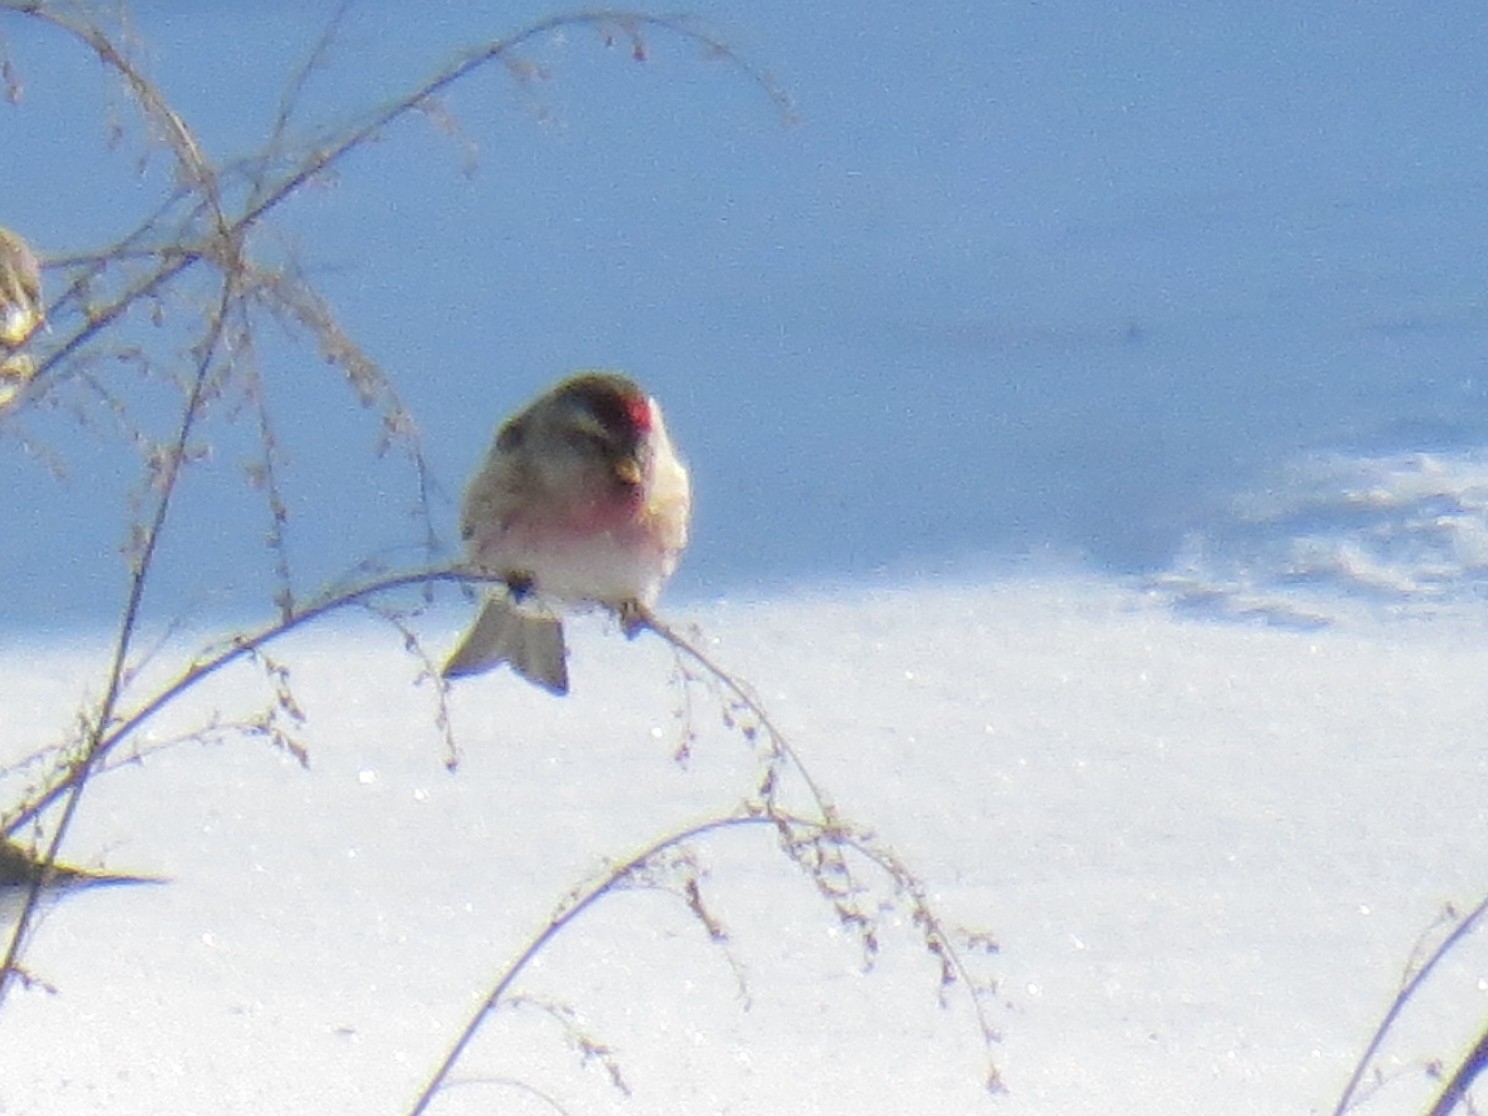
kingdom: Animalia
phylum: Chordata
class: Aves
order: Passeriformes
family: Fringillidae
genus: Acanthis
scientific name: Acanthis flammea
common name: Common redpoll
